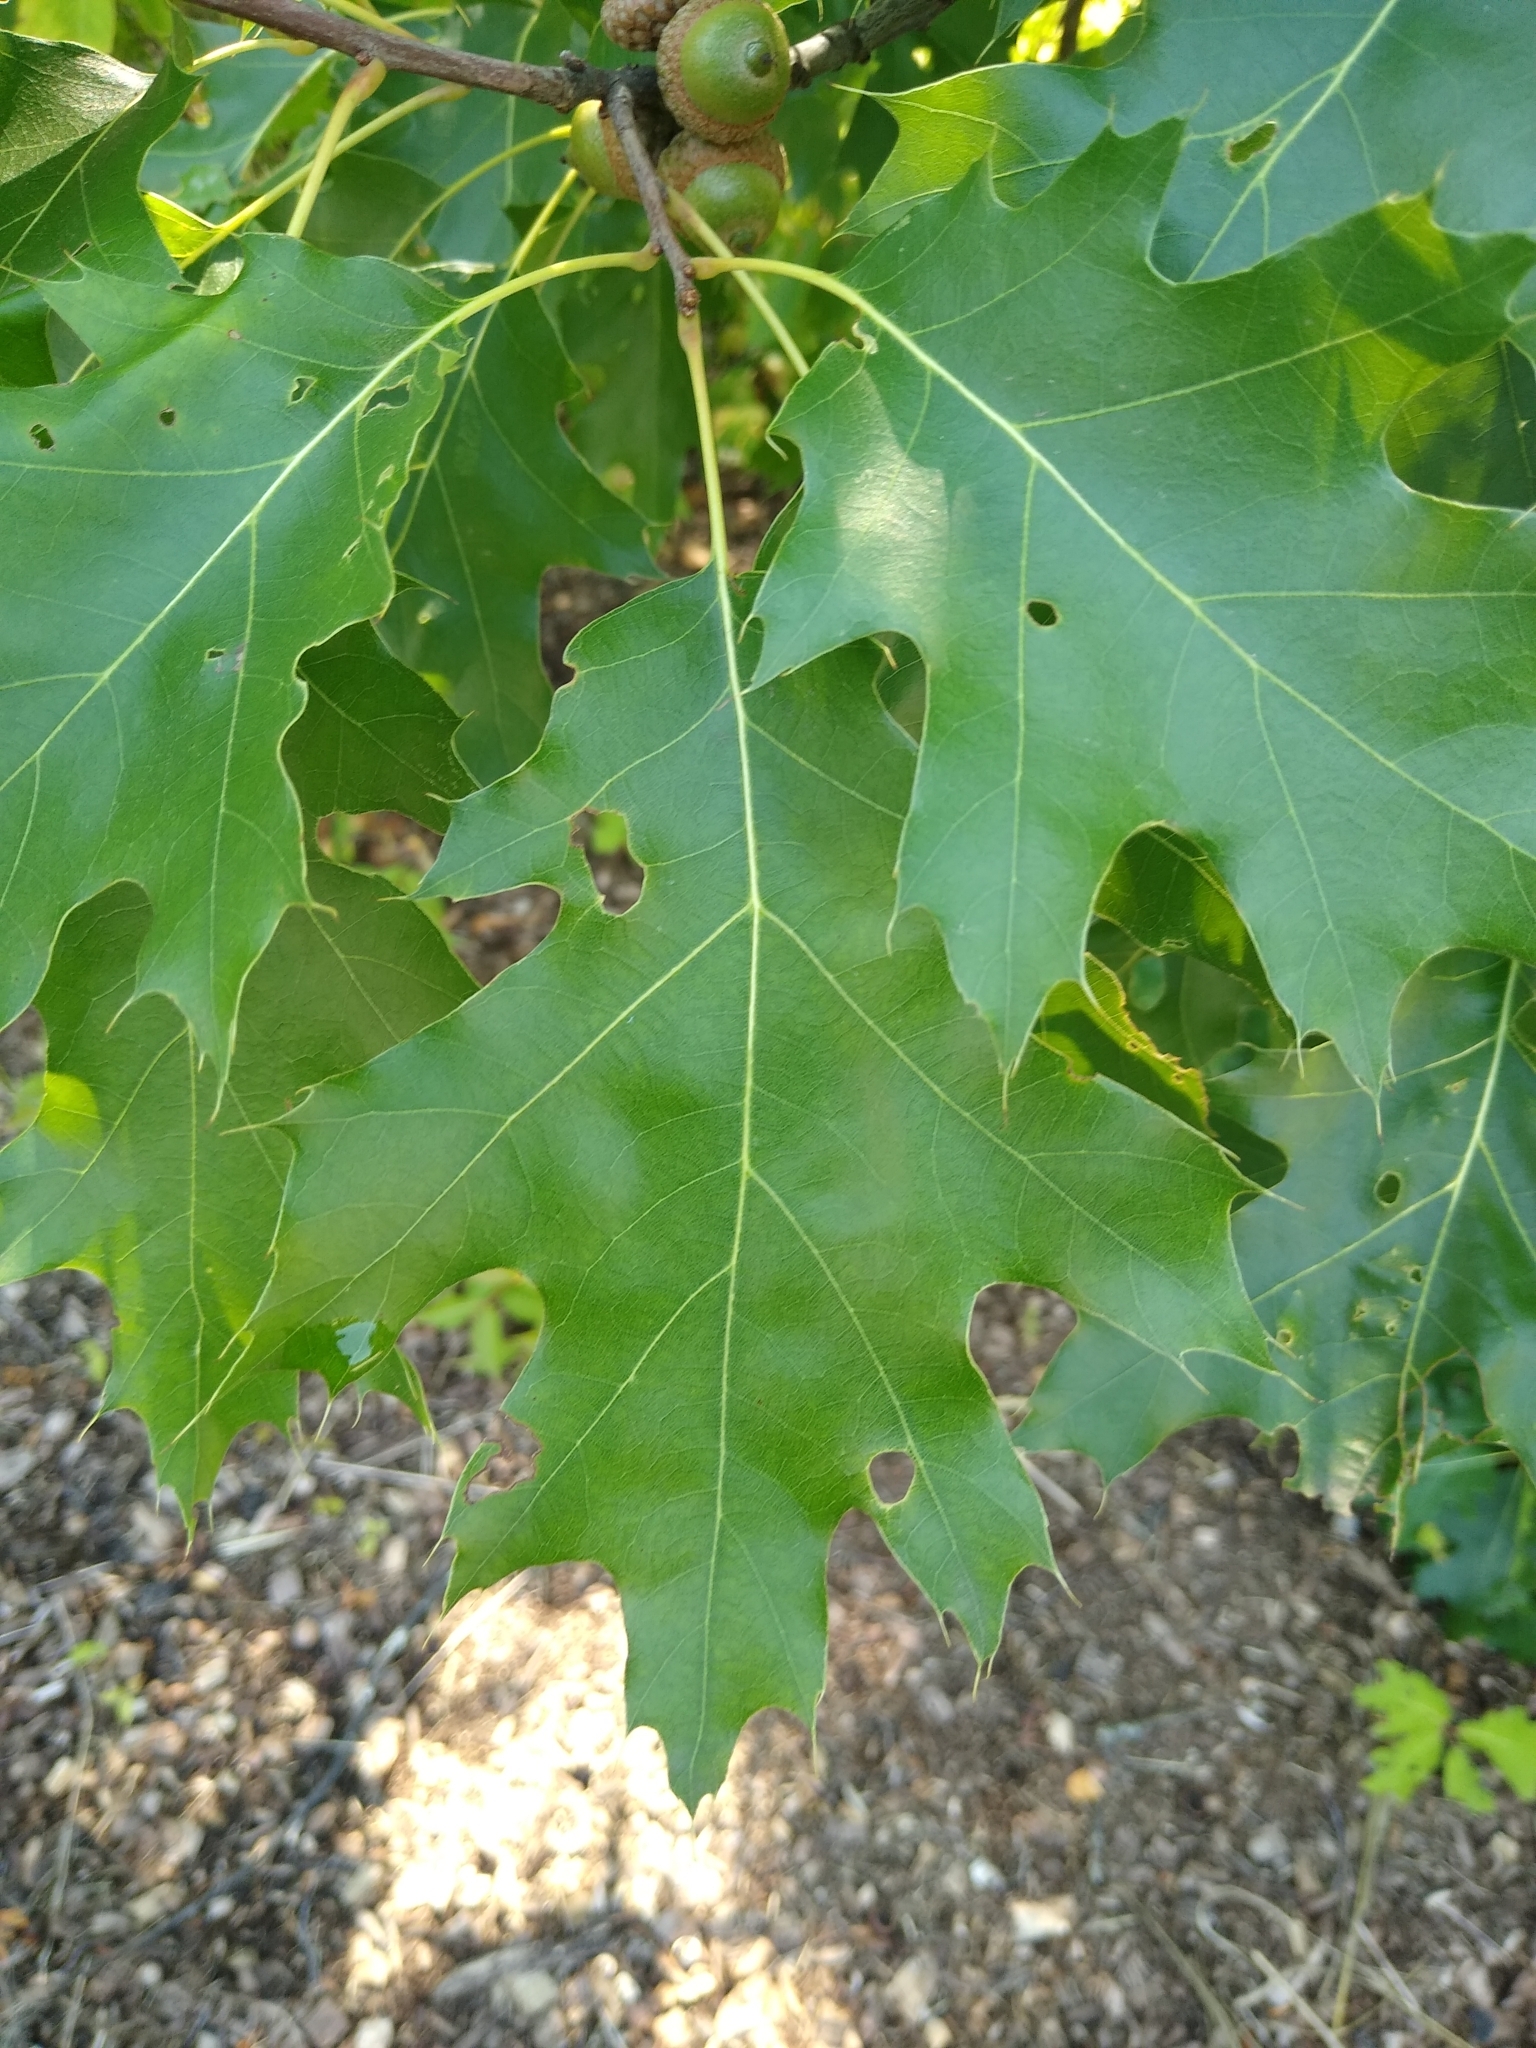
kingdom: Plantae
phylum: Tracheophyta
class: Magnoliopsida
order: Fagales
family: Fagaceae
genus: Quercus
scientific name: Quercus ellipsoidalis
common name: Hill's oak
